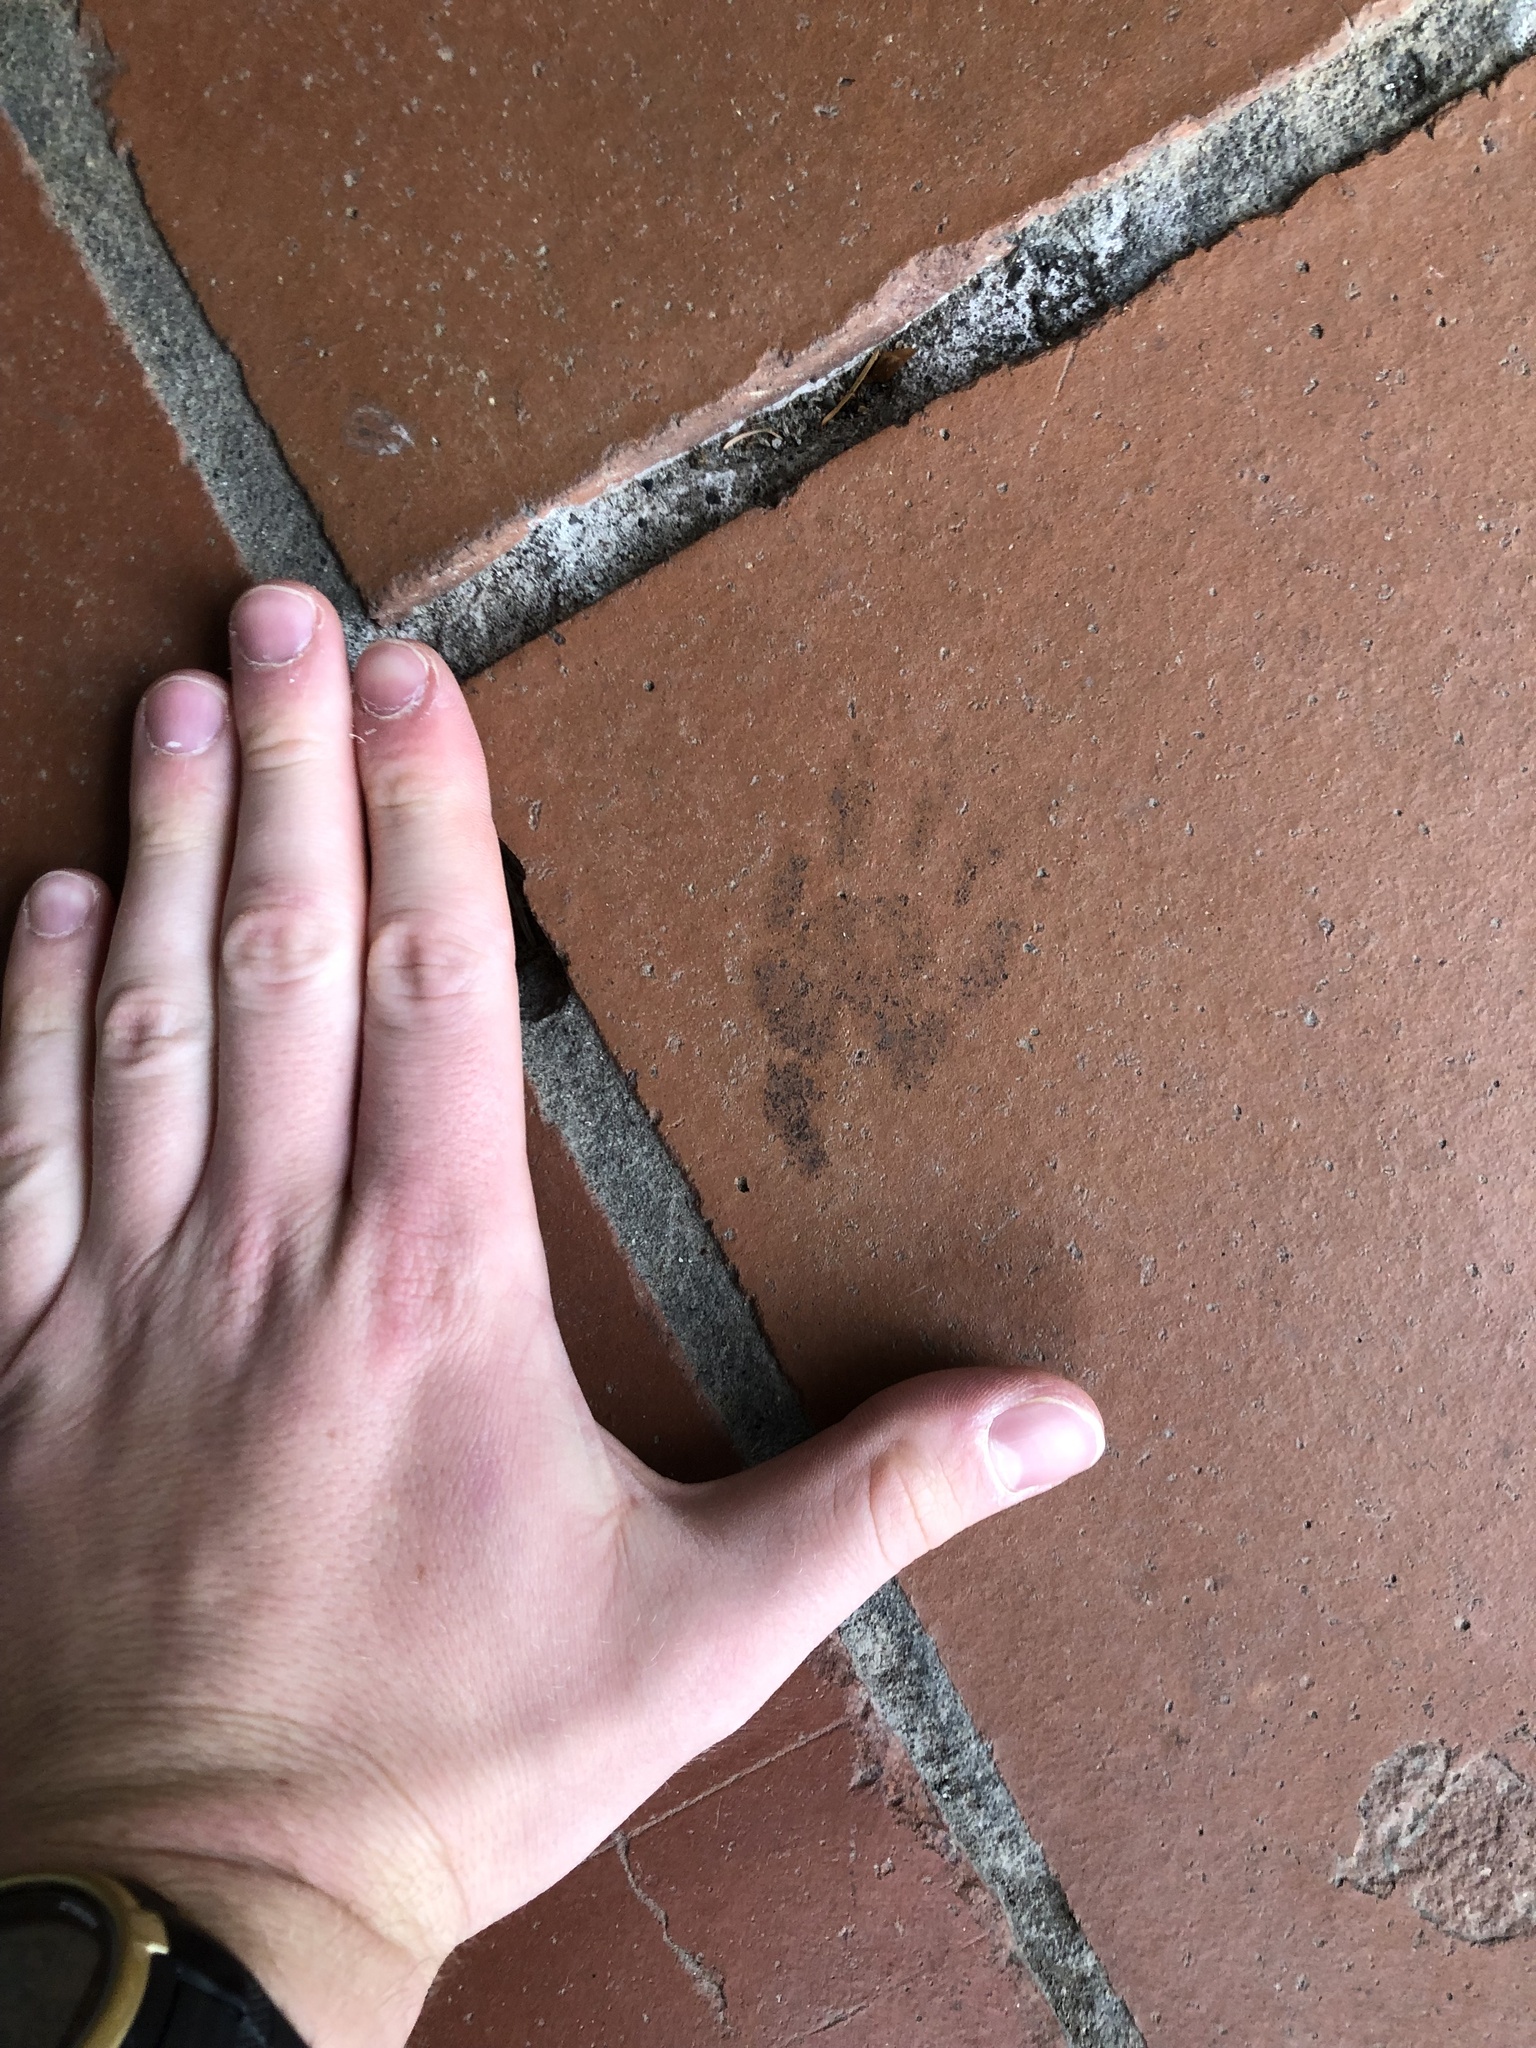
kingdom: Animalia
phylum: Chordata
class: Mammalia
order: Carnivora
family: Procyonidae
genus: Procyon
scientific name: Procyon lotor
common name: Raccoon
